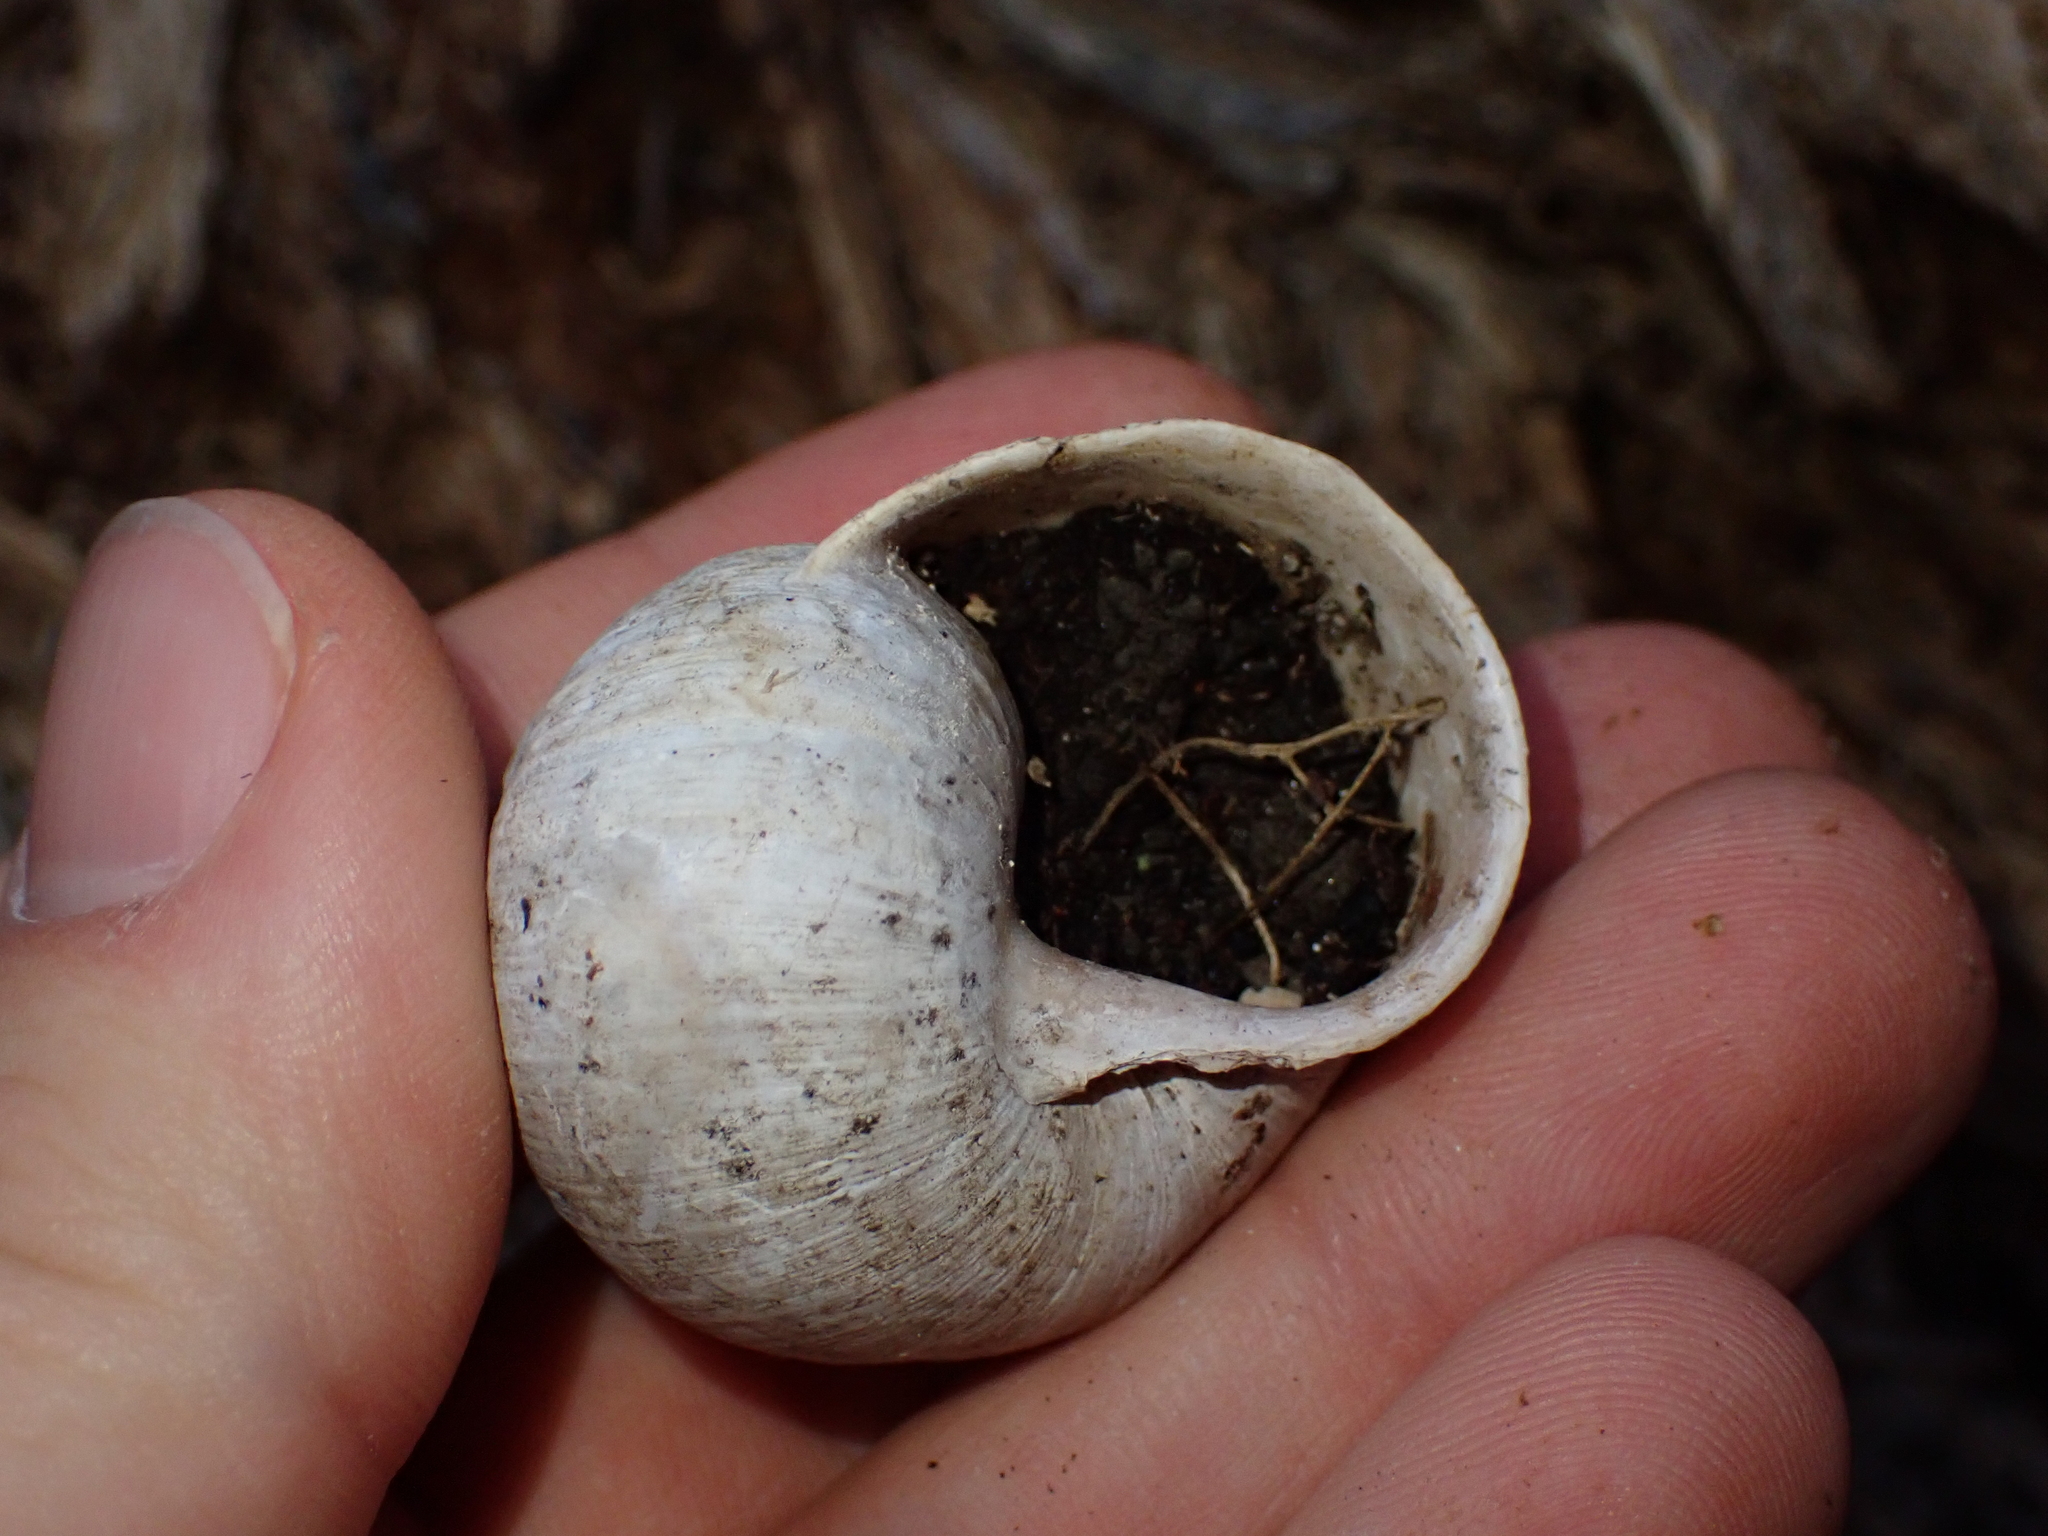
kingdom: Animalia
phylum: Mollusca
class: Gastropoda
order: Stylommatophora
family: Helicidae
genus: Helix
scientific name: Helix pomatia
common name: Roman snail
